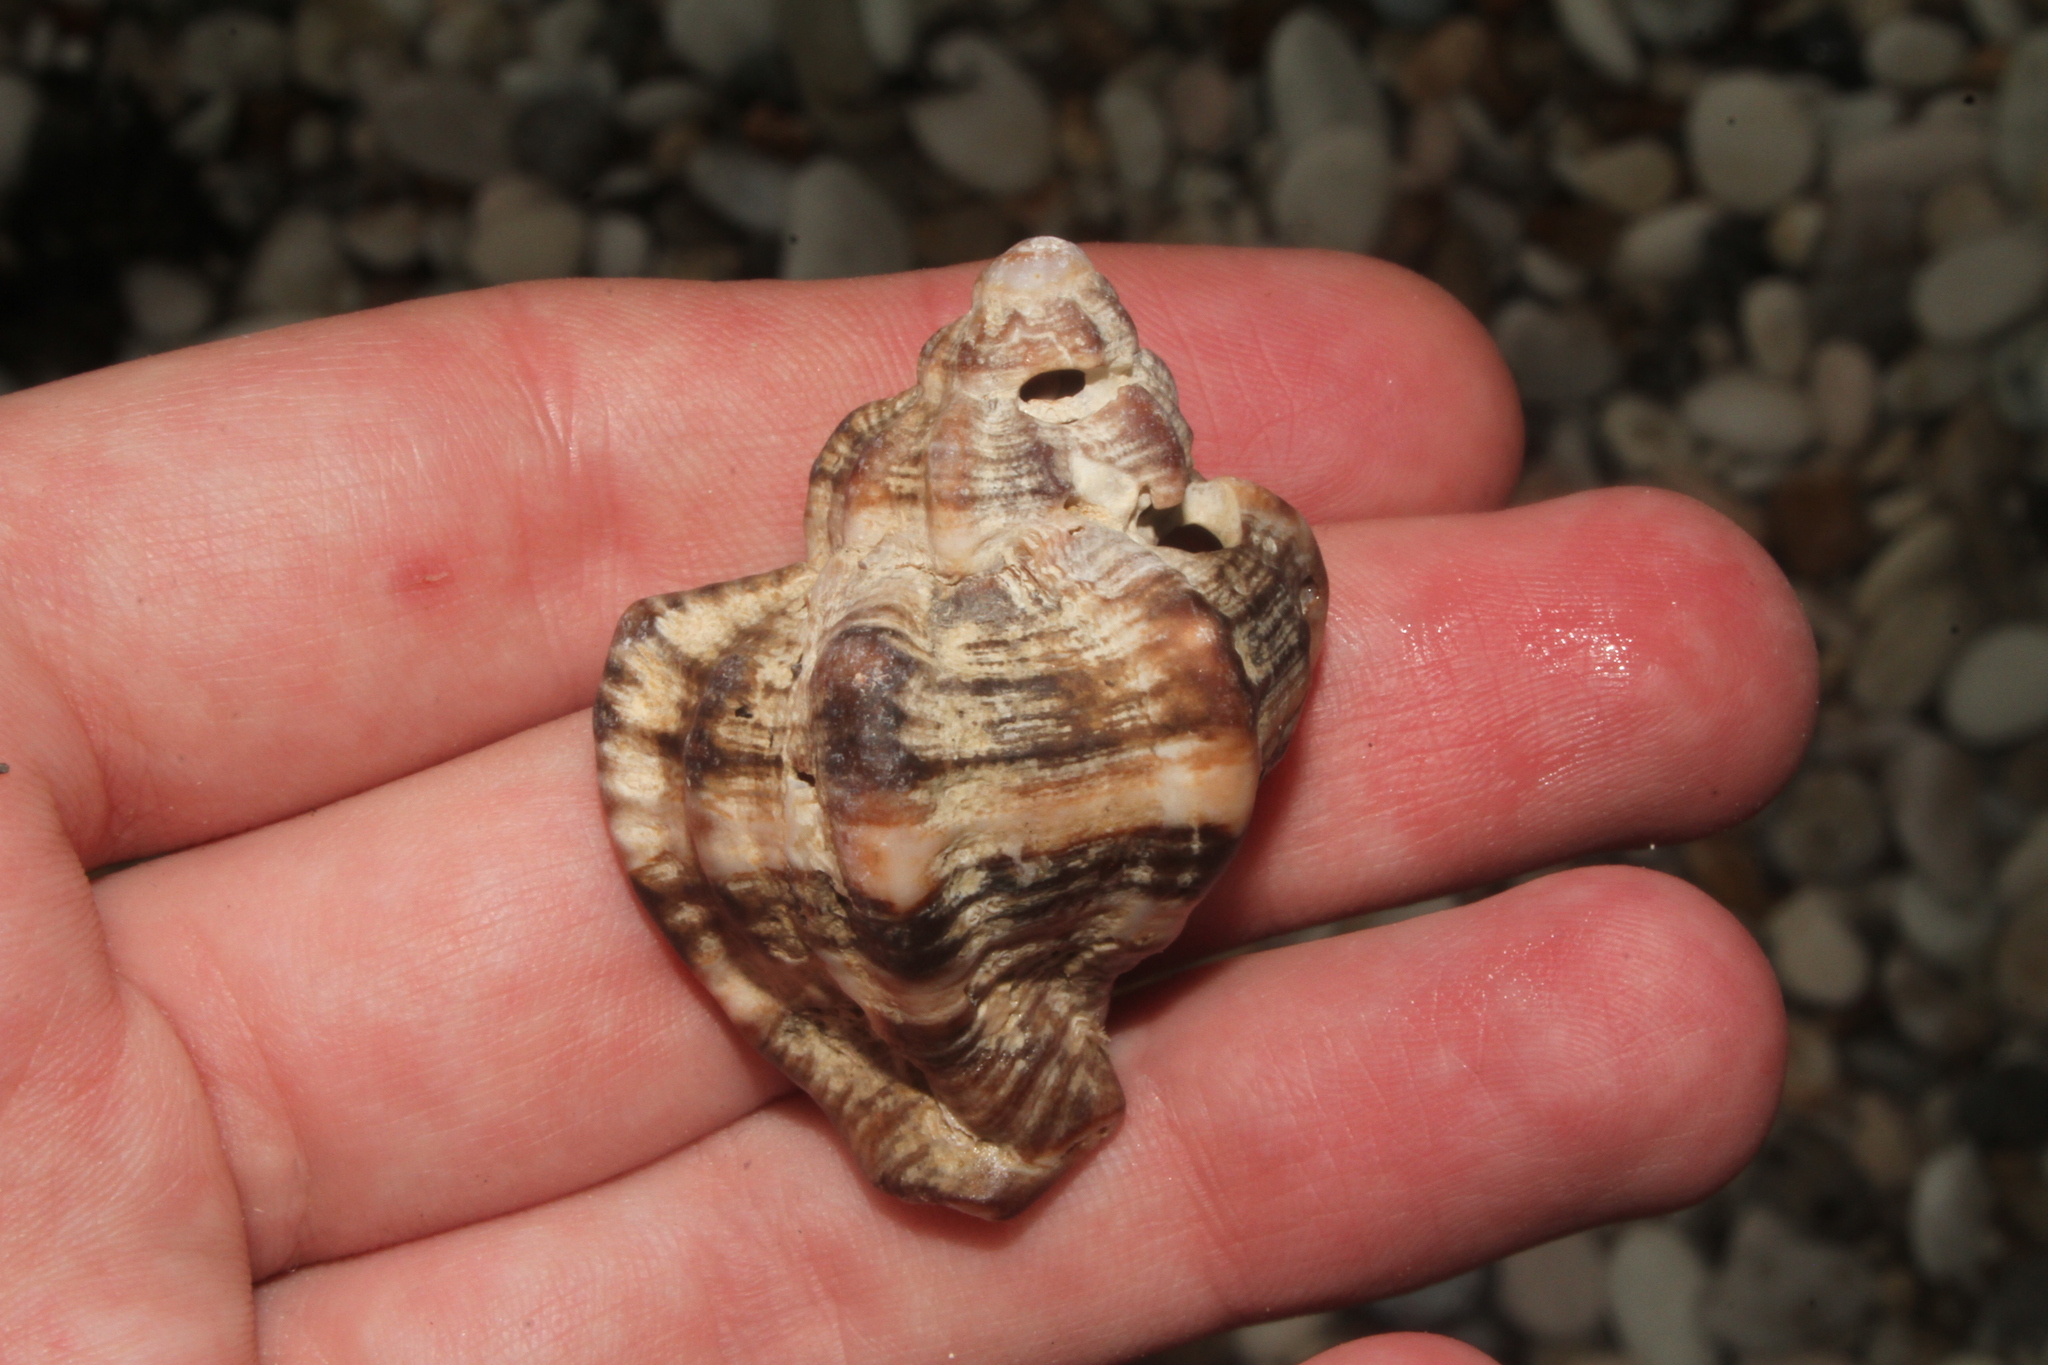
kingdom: Animalia
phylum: Mollusca
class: Gastropoda
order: Neogastropoda
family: Muricidae
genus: Hexaplex
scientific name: Hexaplex trunculus
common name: Banded dye-murex
